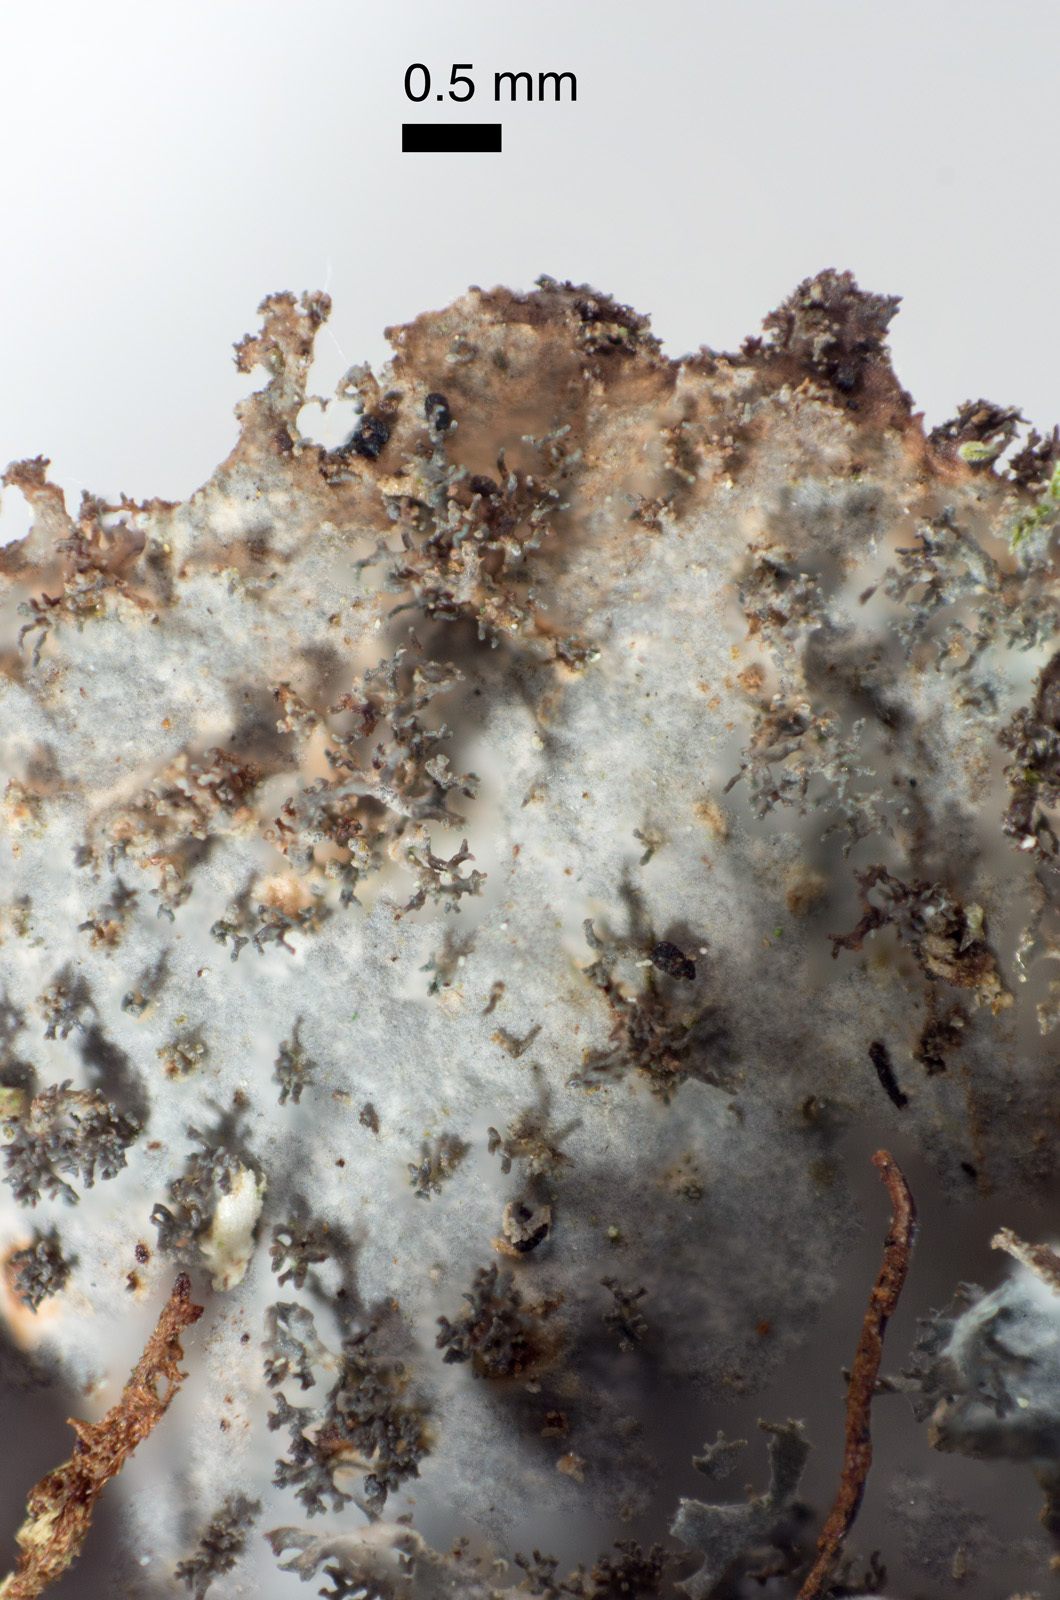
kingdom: Fungi
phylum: Ascomycota
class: Lecanoromycetes
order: Peltigerales
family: Lobariaceae
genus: Sticta
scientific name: Sticta caliginosa
